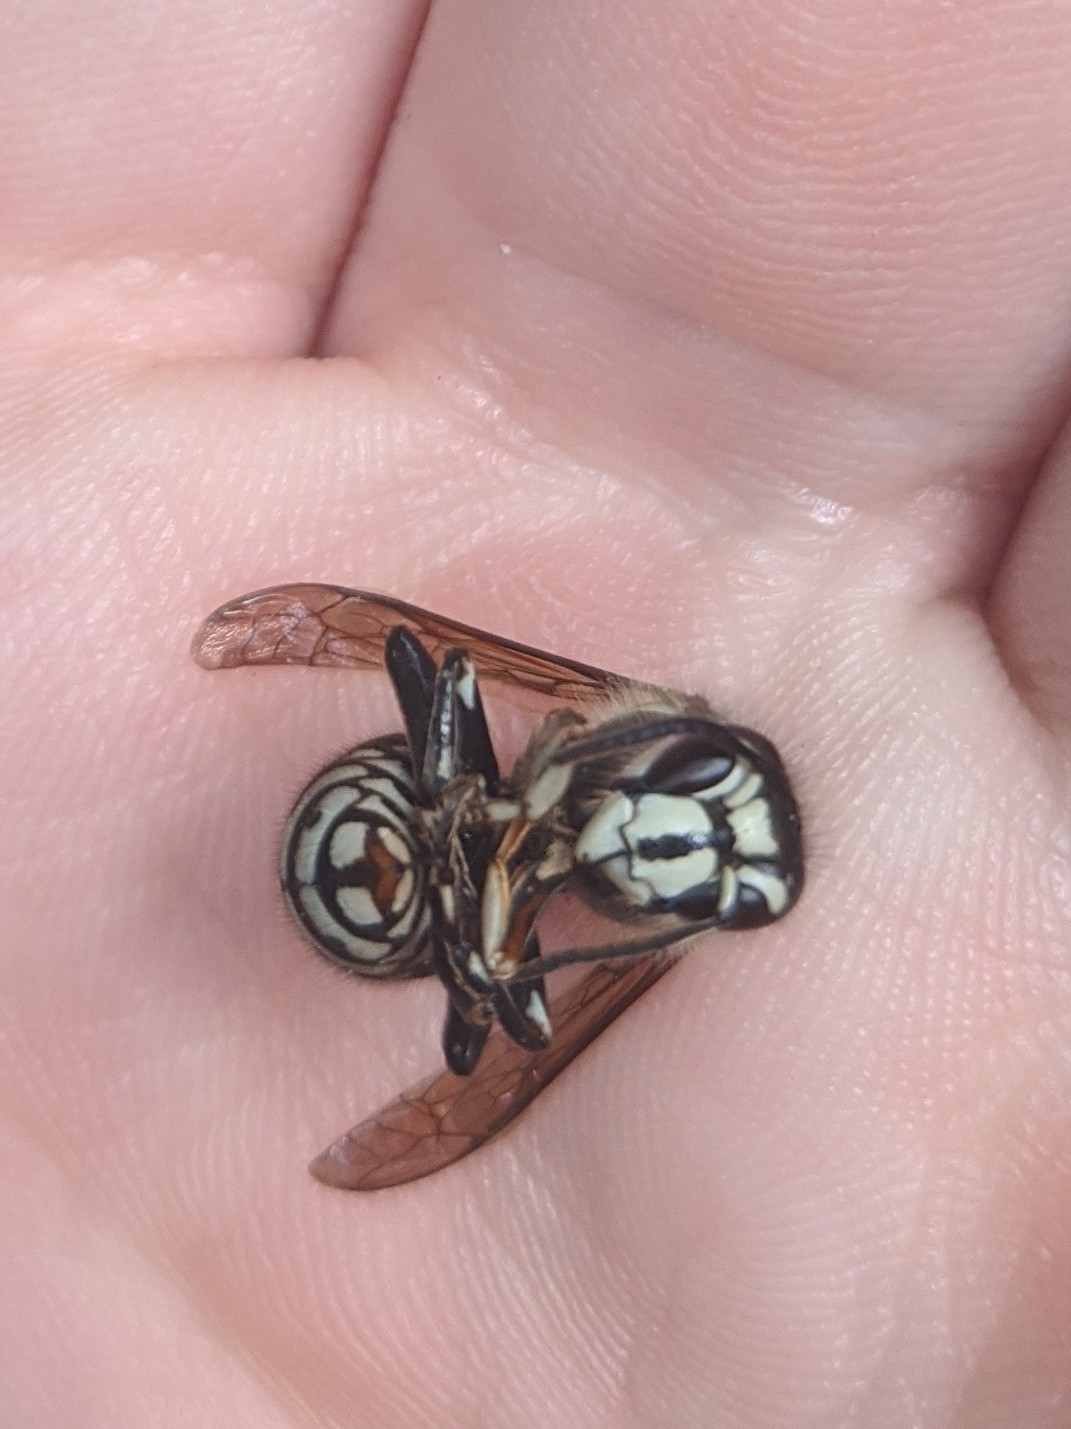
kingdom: Animalia
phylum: Arthropoda
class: Insecta
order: Hymenoptera
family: Vespidae
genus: Dolichovespula
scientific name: Dolichovespula maculata
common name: Bald-faced hornet
